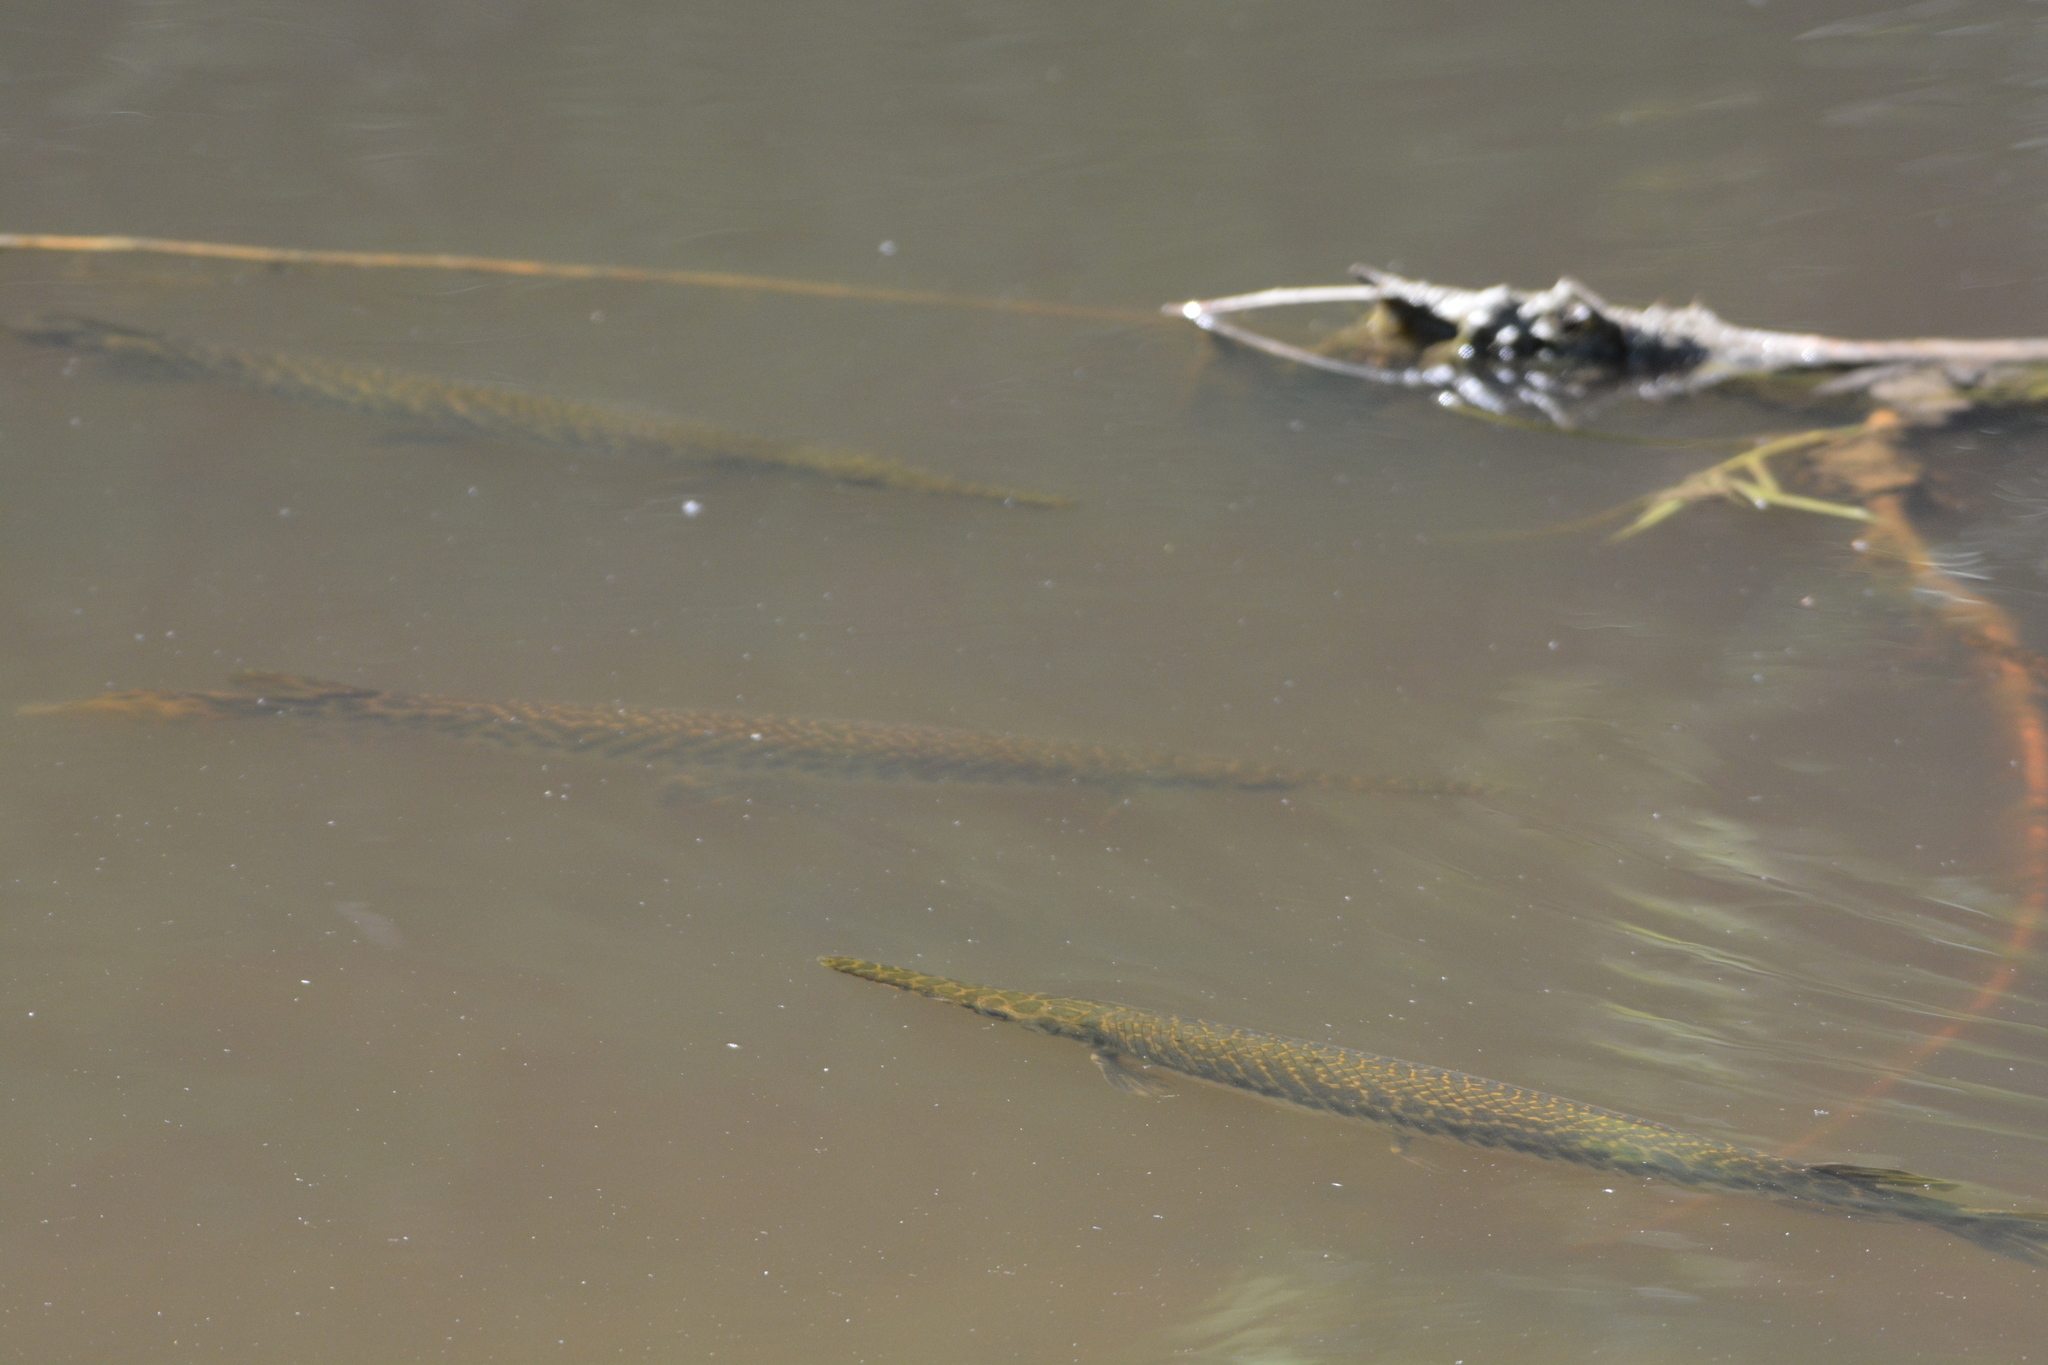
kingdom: Animalia
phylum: Chordata
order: Lepisosteiformes
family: Lepisosteidae
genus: Lepisosteus
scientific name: Lepisosteus oculatus
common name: Spotted gar
